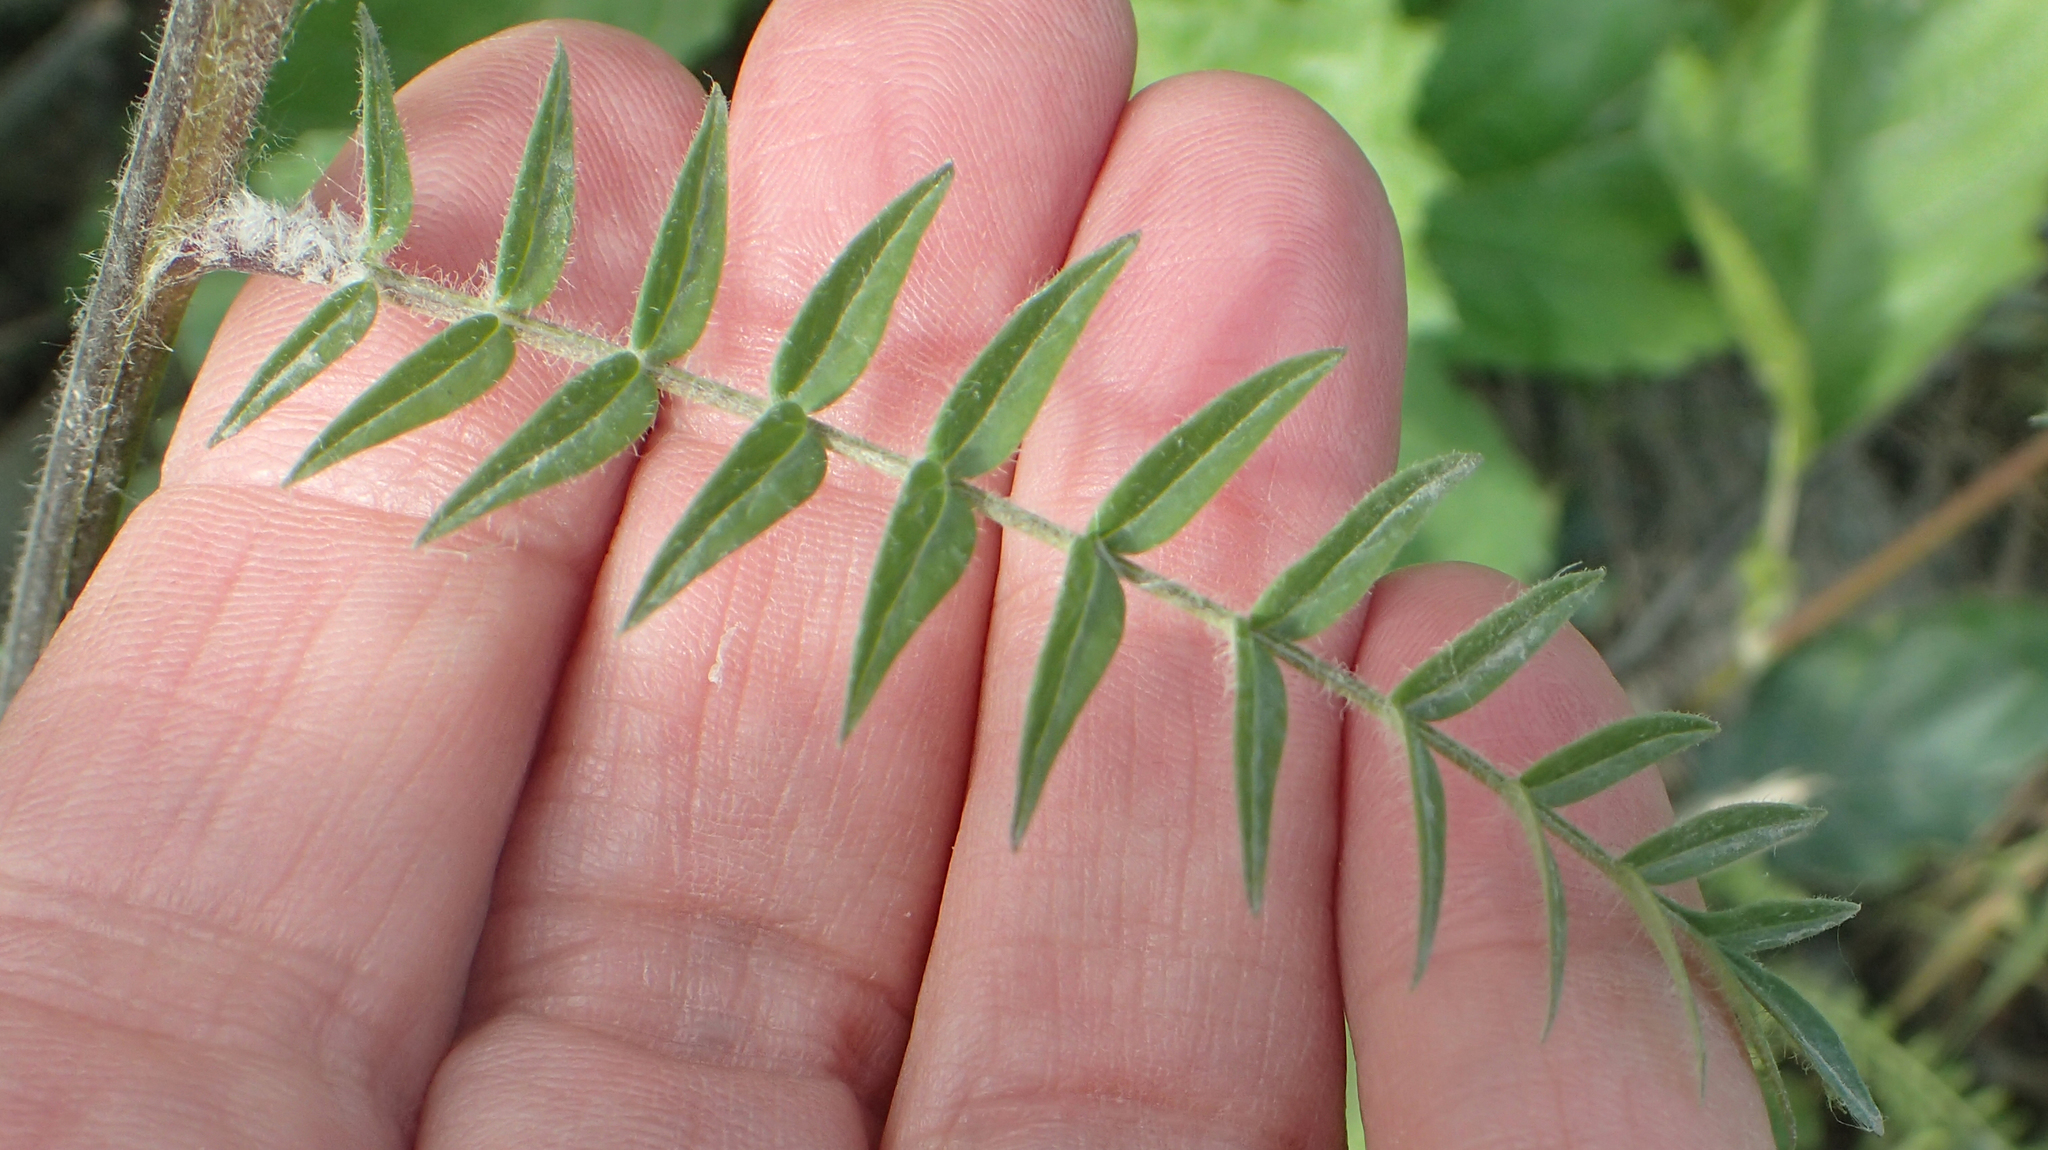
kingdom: Plantae
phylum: Tracheophyta
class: Magnoliopsida
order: Ericales
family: Polemoniaceae
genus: Polemonium
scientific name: Polemonium acutiflorum
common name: Tall jacob's-ladder
